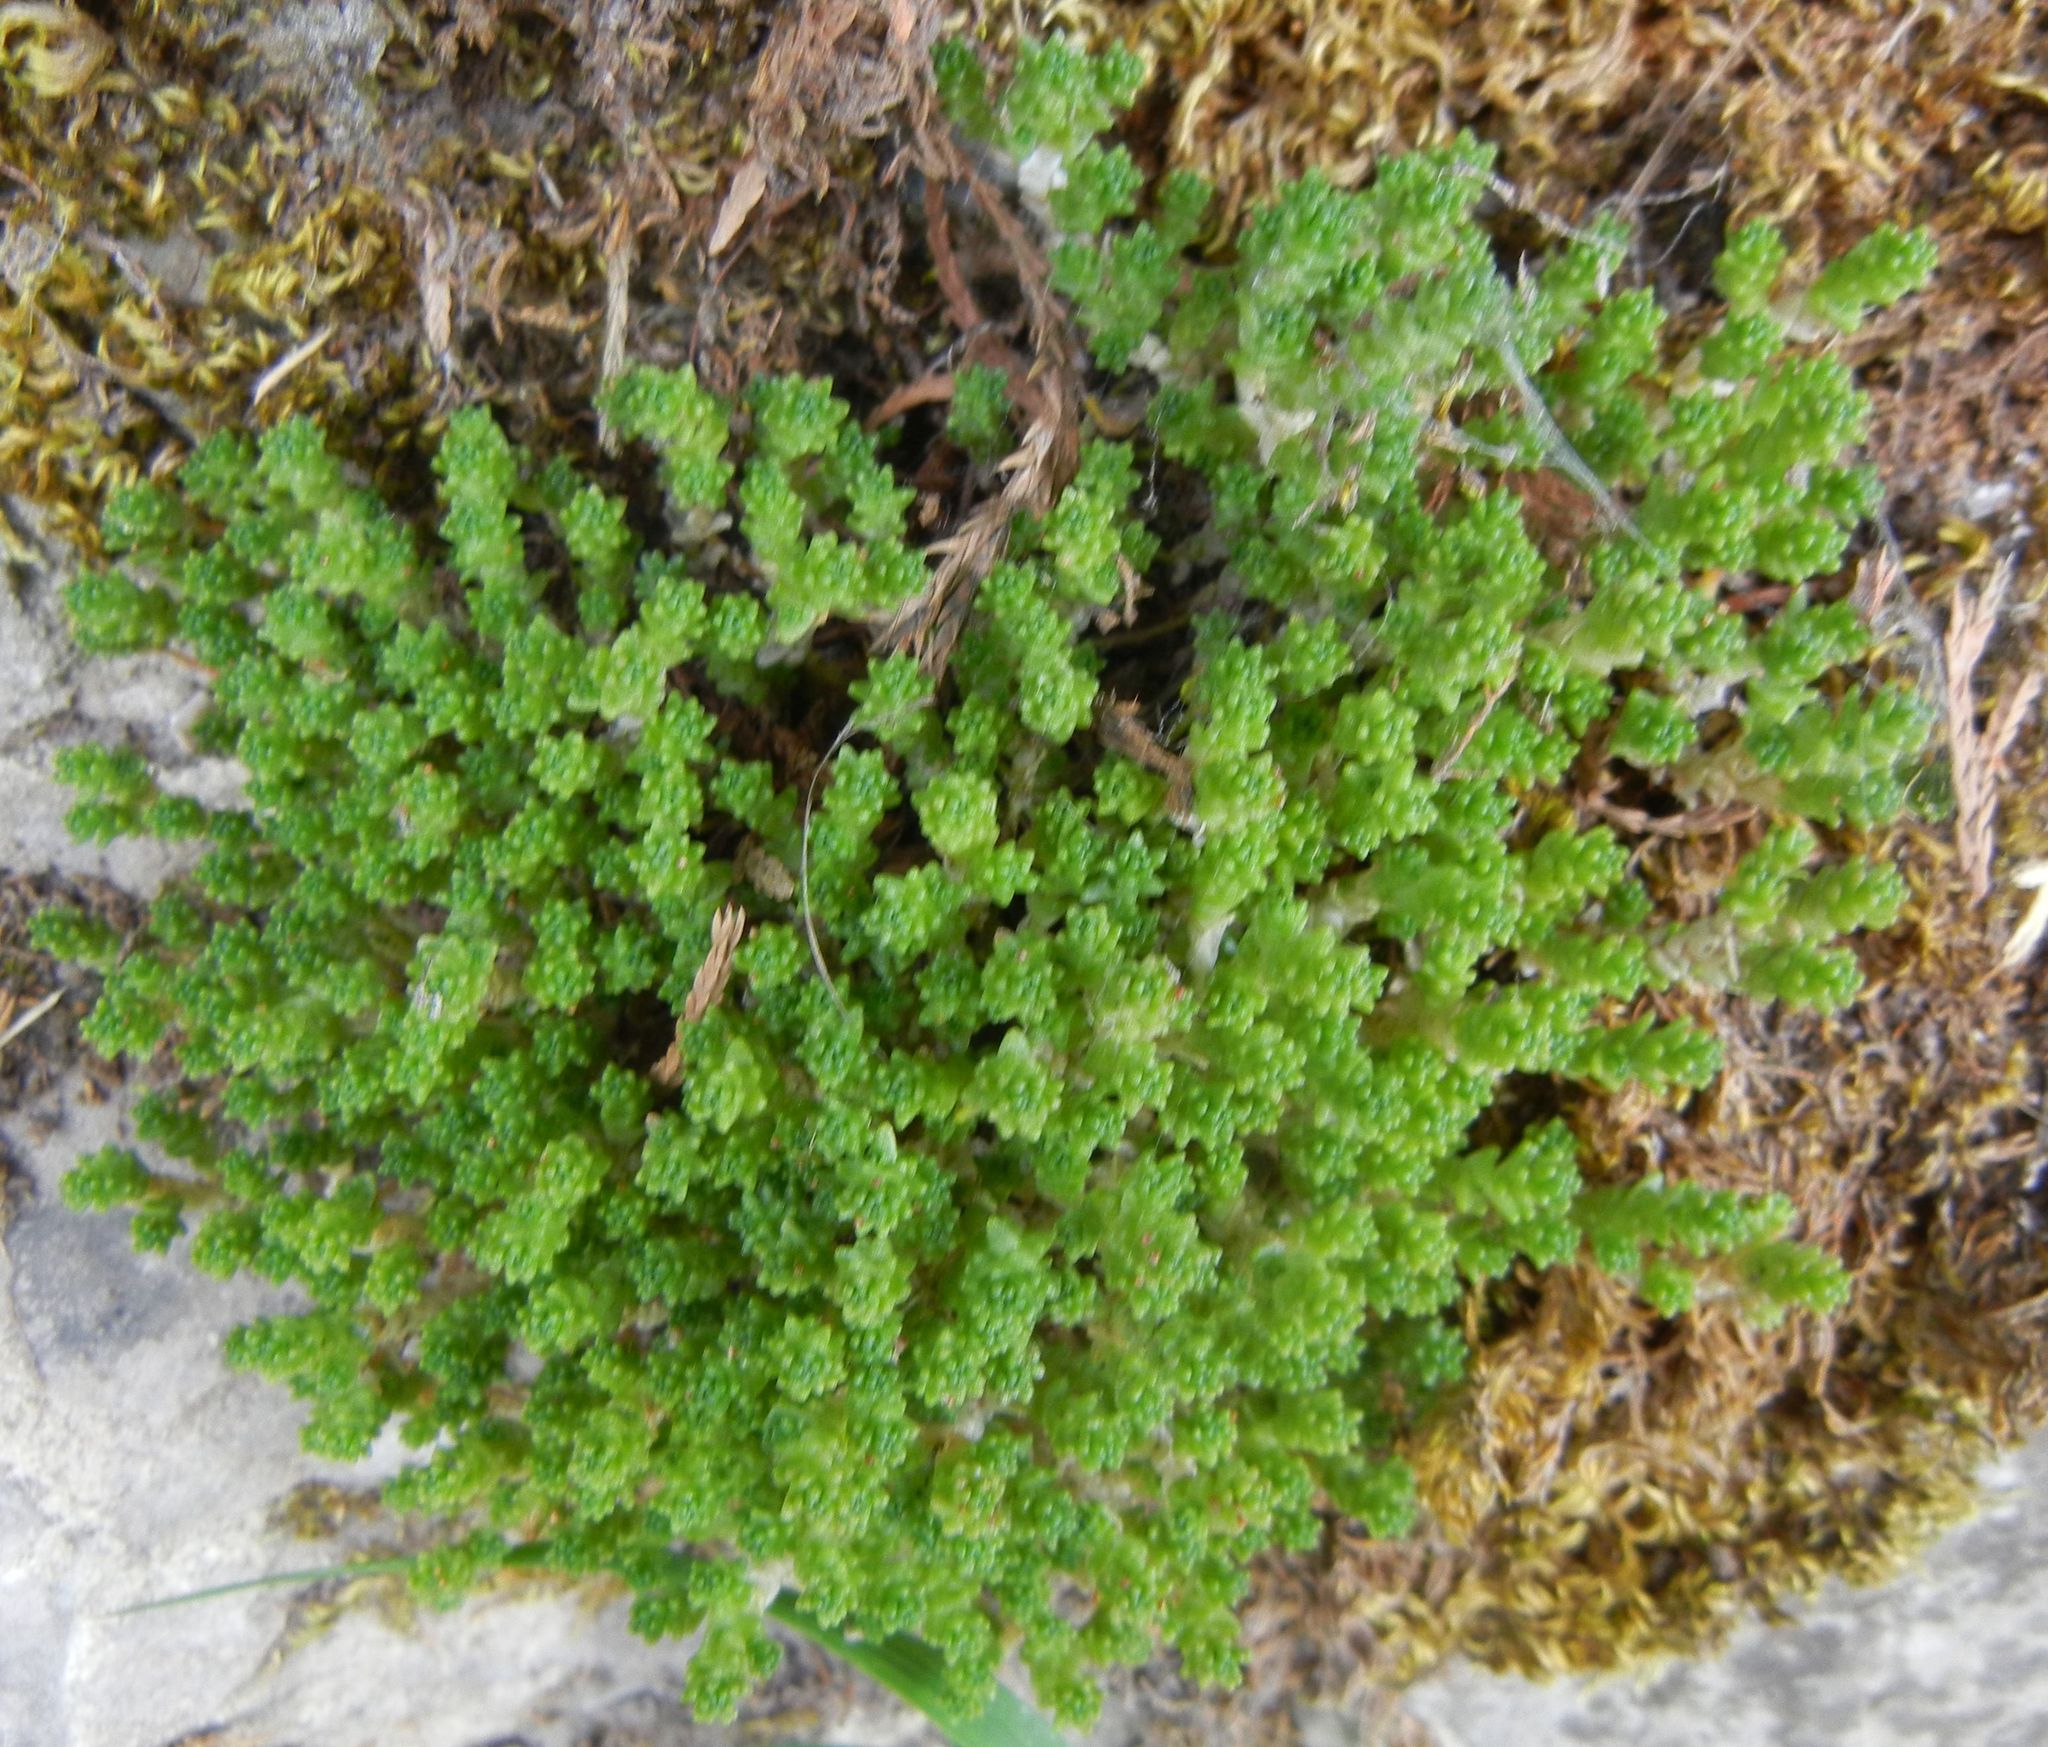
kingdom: Plantae
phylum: Tracheophyta
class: Magnoliopsida
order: Saxifragales
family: Crassulaceae
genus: Sedum
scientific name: Sedum acre
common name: Biting stonecrop
